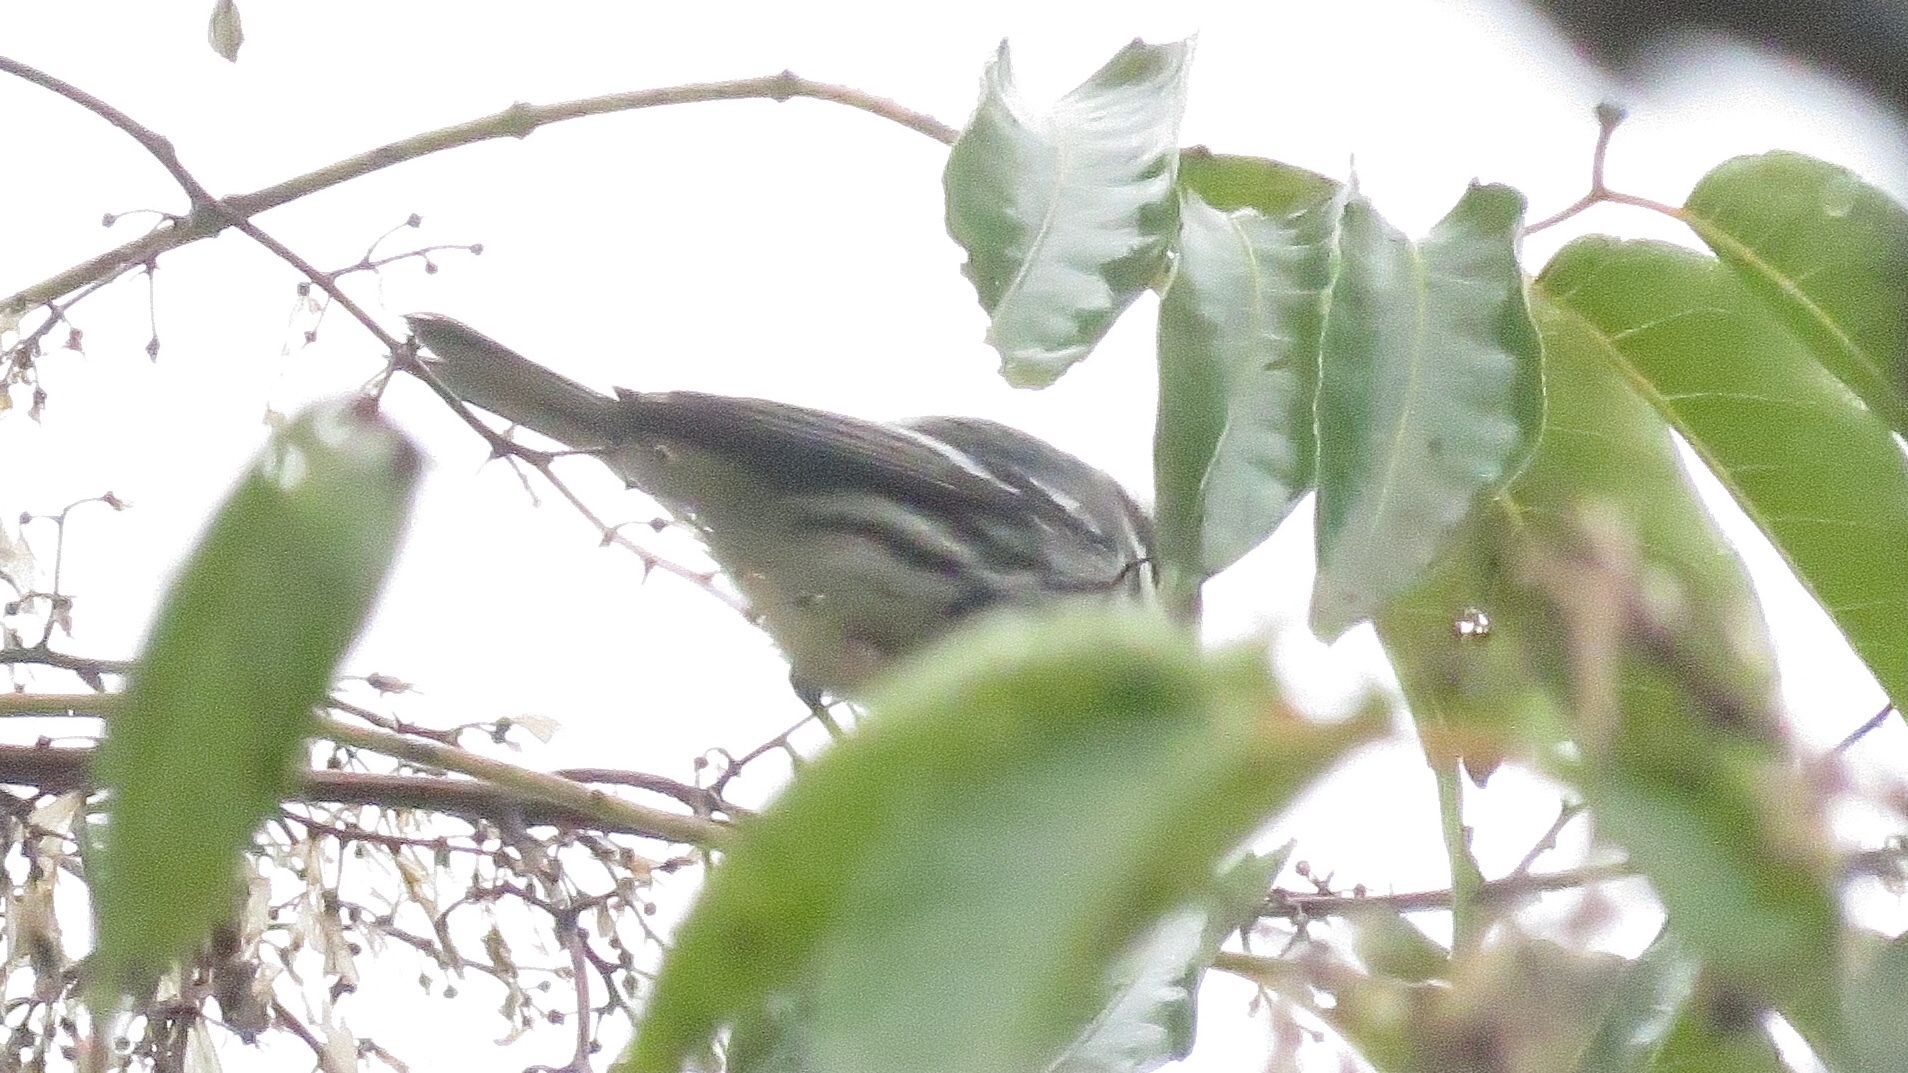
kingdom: Animalia
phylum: Chordata
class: Aves
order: Passeriformes
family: Parulidae
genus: Setophaga
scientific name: Setophaga nigrescens
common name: Black-throated gray warbler
